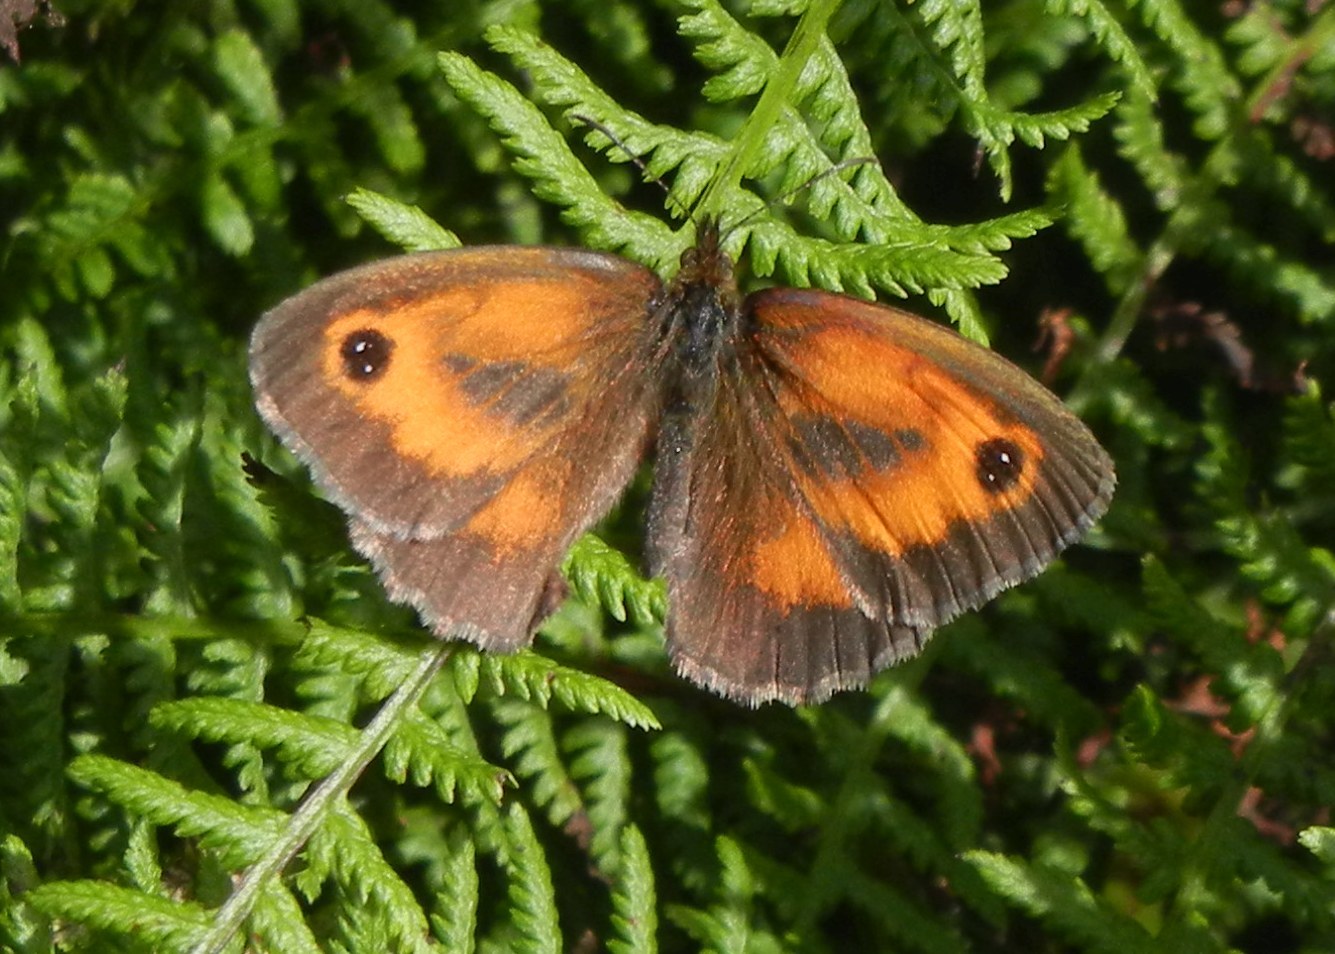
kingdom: Animalia
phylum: Arthropoda
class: Insecta
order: Lepidoptera
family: Nymphalidae
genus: Pyronia
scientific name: Pyronia tithonus
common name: Gatekeeper
